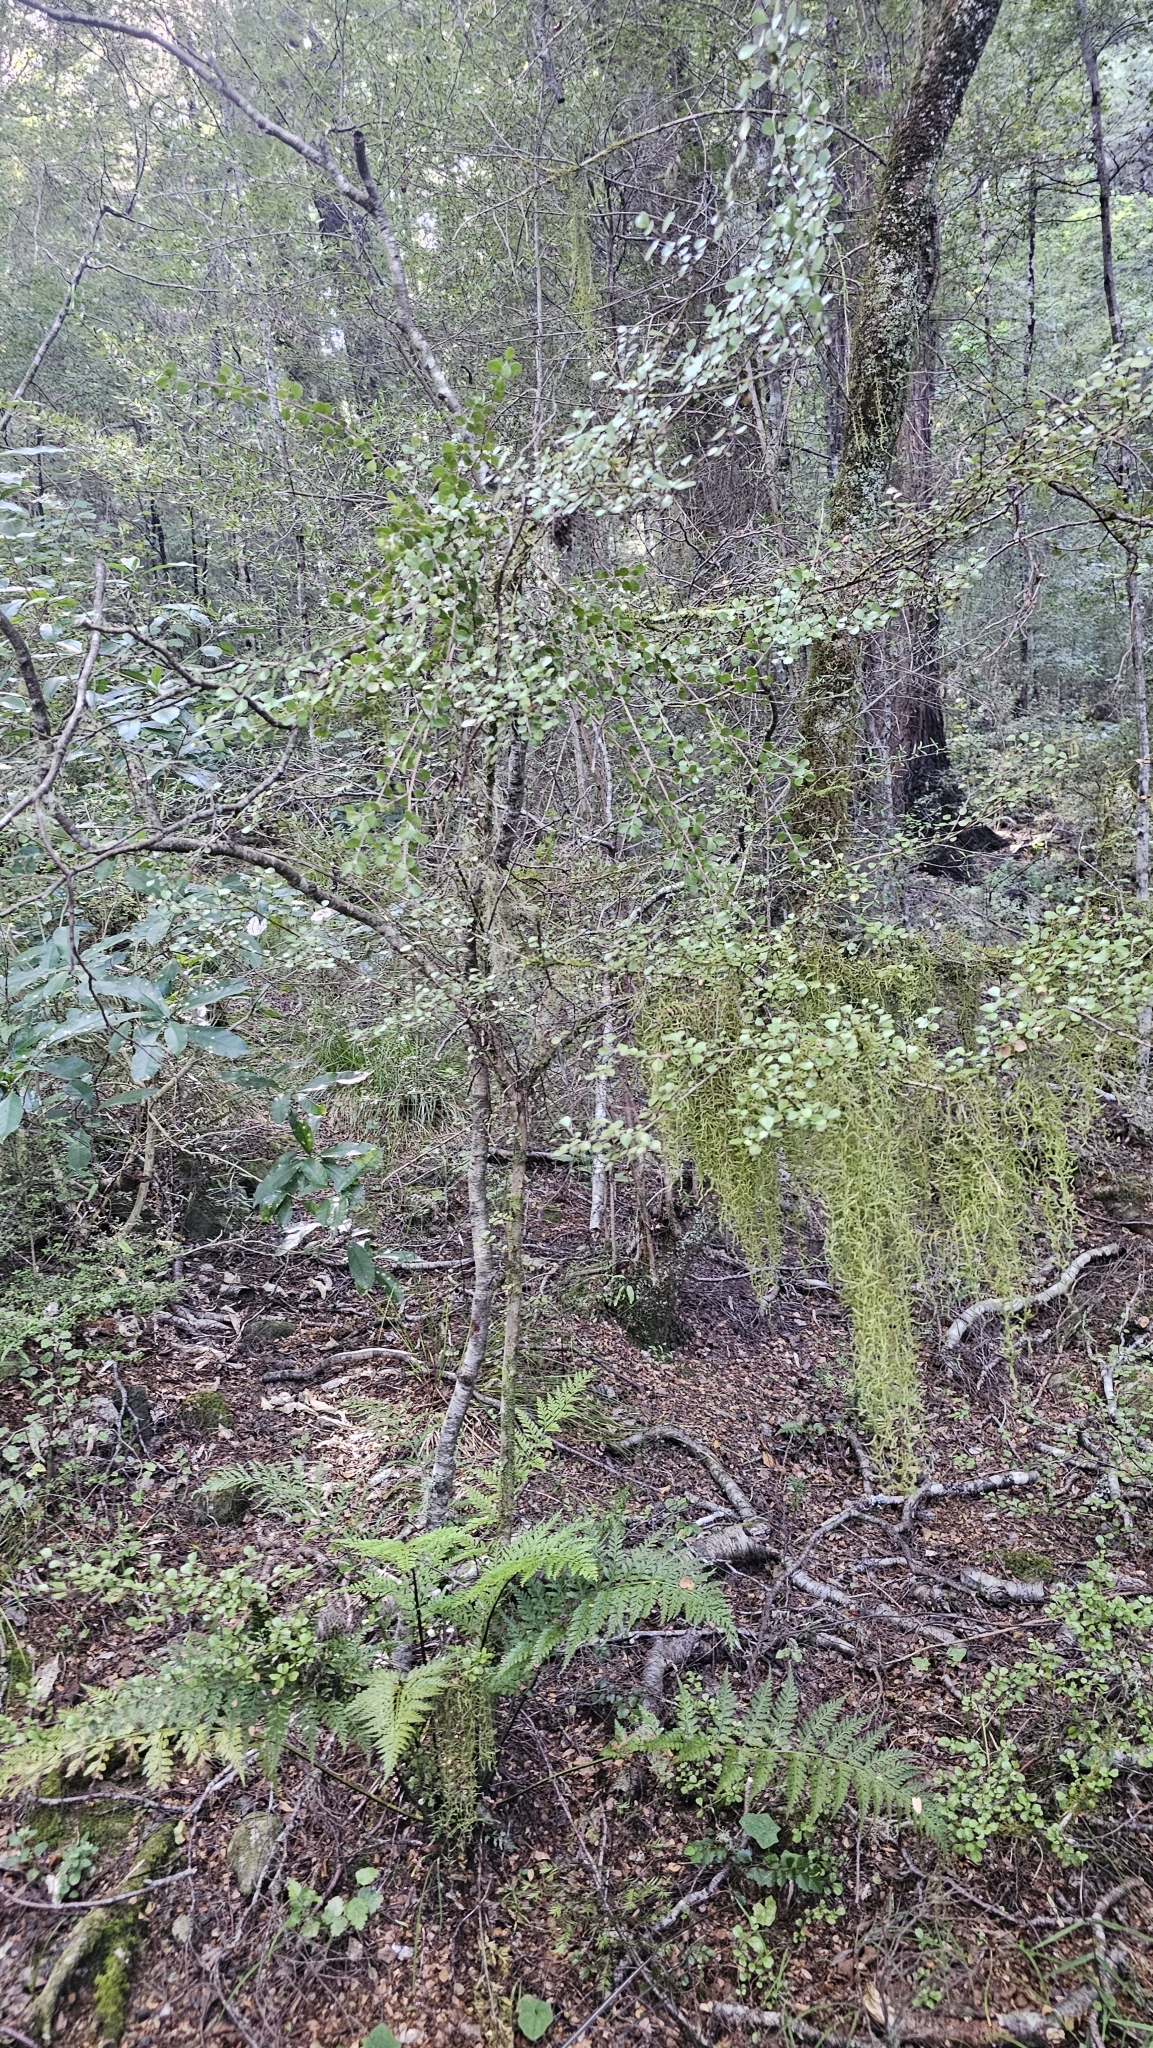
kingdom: Plantae
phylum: Tracheophyta
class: Magnoliopsida
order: Myrtales
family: Myrtaceae
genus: Lophomyrtus
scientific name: Lophomyrtus obcordata
